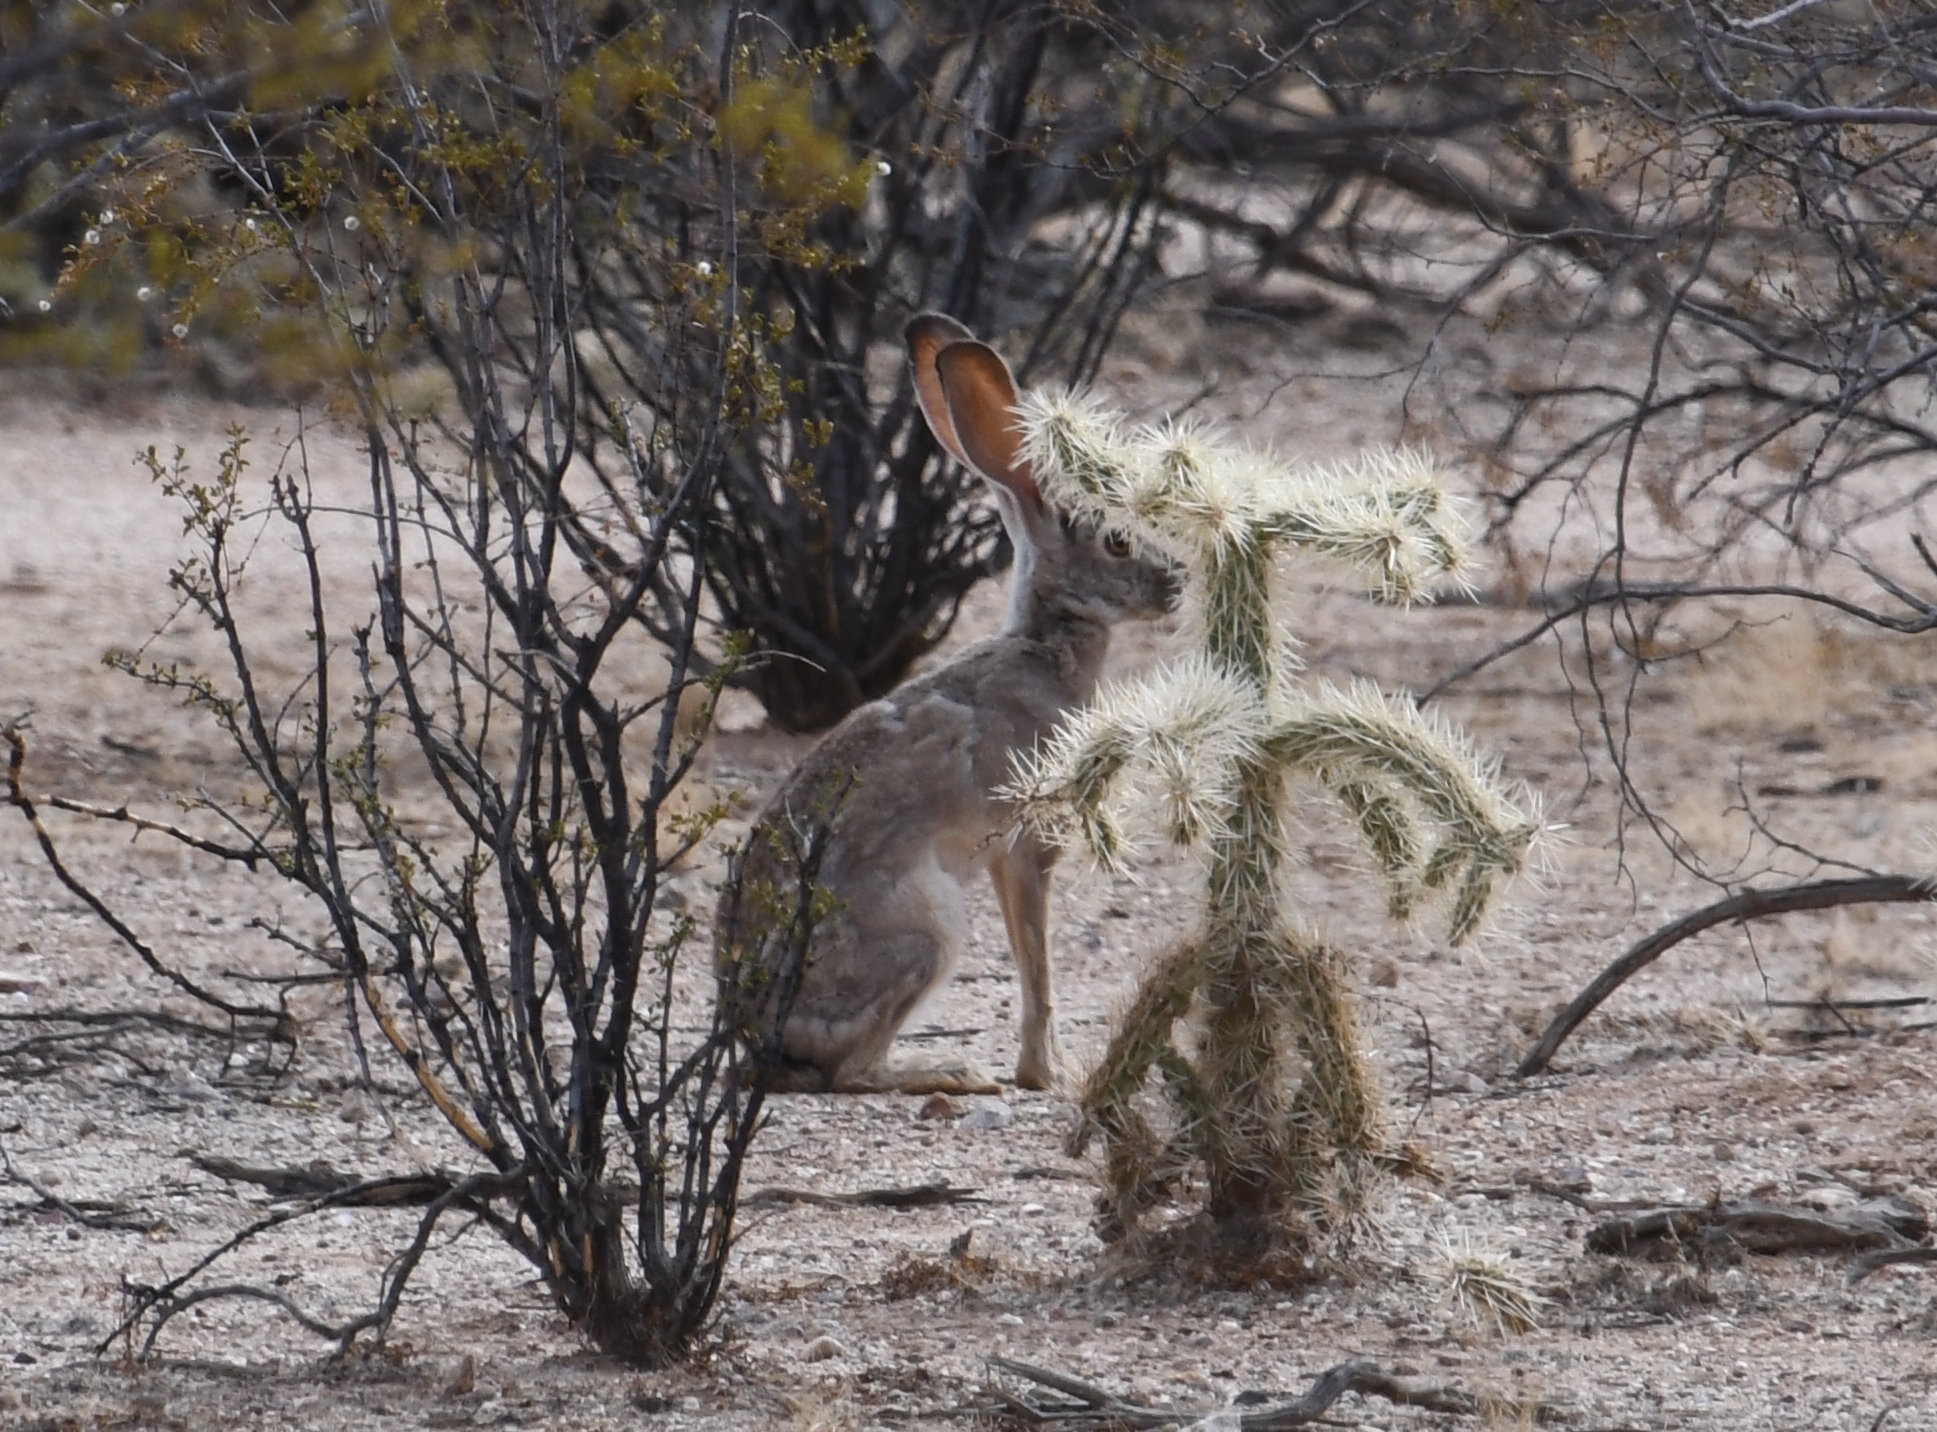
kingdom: Animalia
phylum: Chordata
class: Mammalia
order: Lagomorpha
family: Leporidae
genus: Lepus
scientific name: Lepus californicus
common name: Black-tailed jackrabbit
